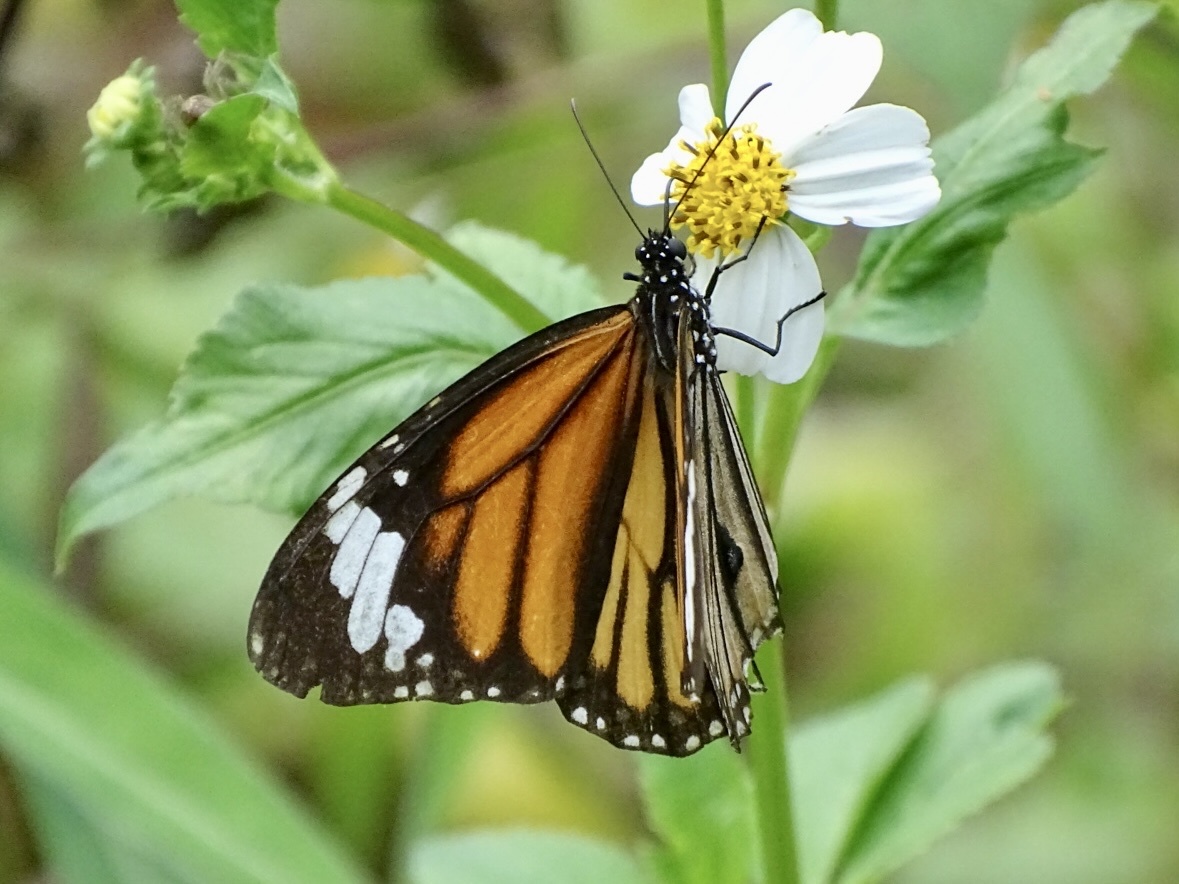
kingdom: Animalia
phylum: Arthropoda
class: Insecta
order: Lepidoptera
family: Nymphalidae
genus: Danaus
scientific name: Danaus genutia
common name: Common tiger butterfly
